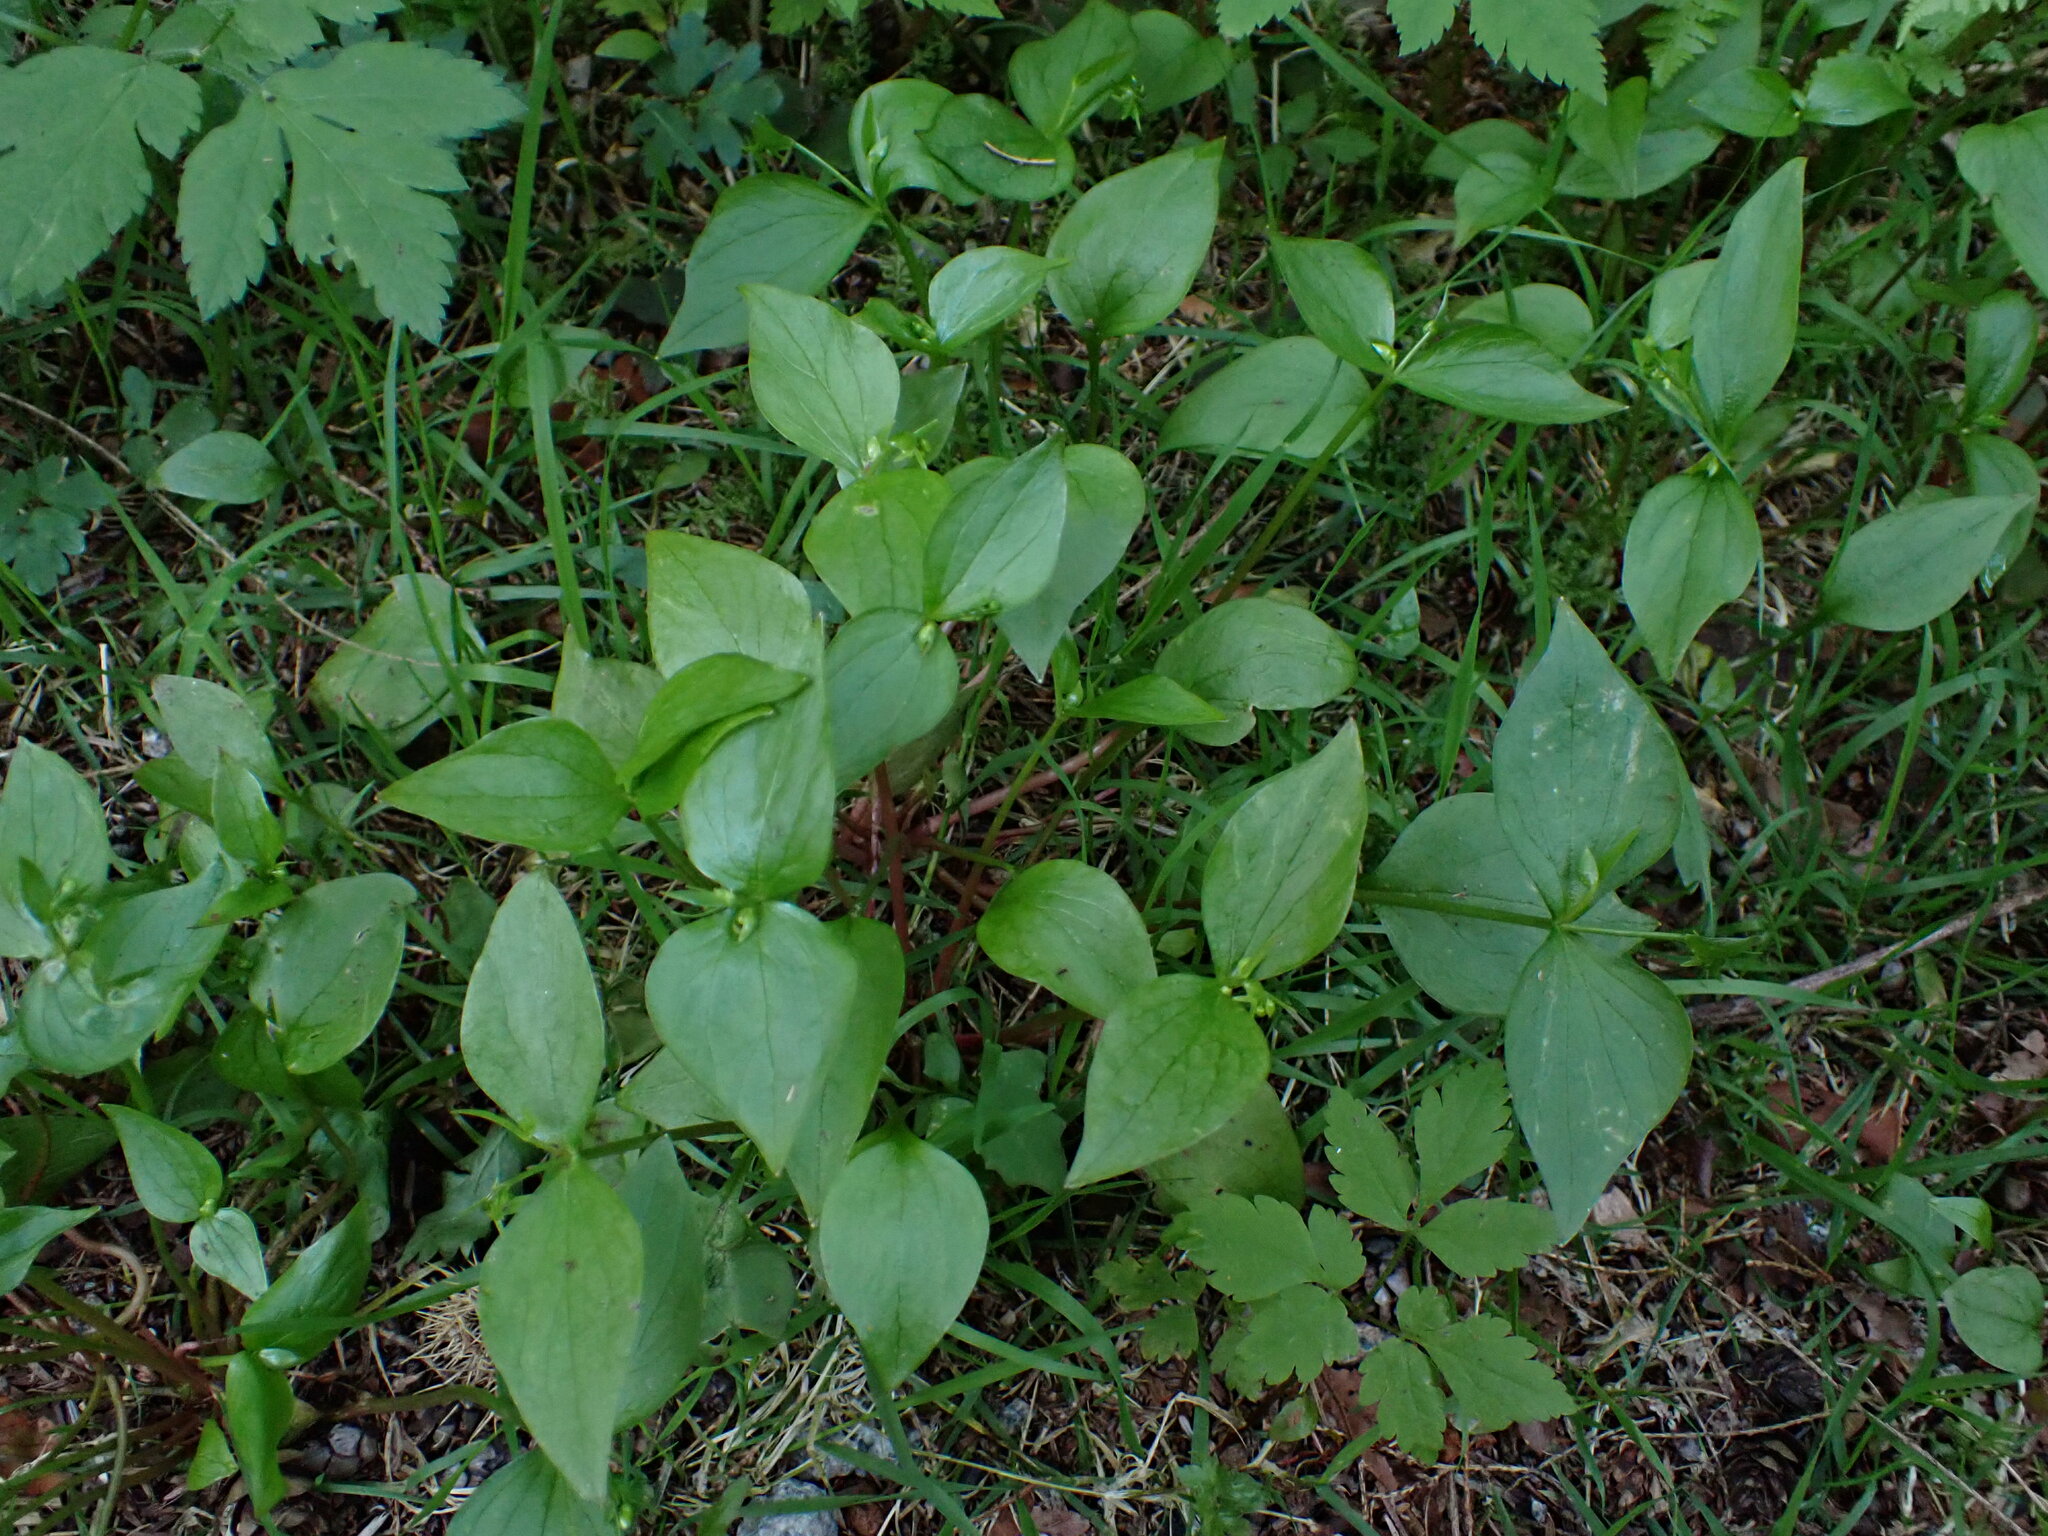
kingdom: Plantae
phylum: Tracheophyta
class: Magnoliopsida
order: Caryophyllales
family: Montiaceae
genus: Claytonia
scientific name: Claytonia sibirica
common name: Pink purslane
